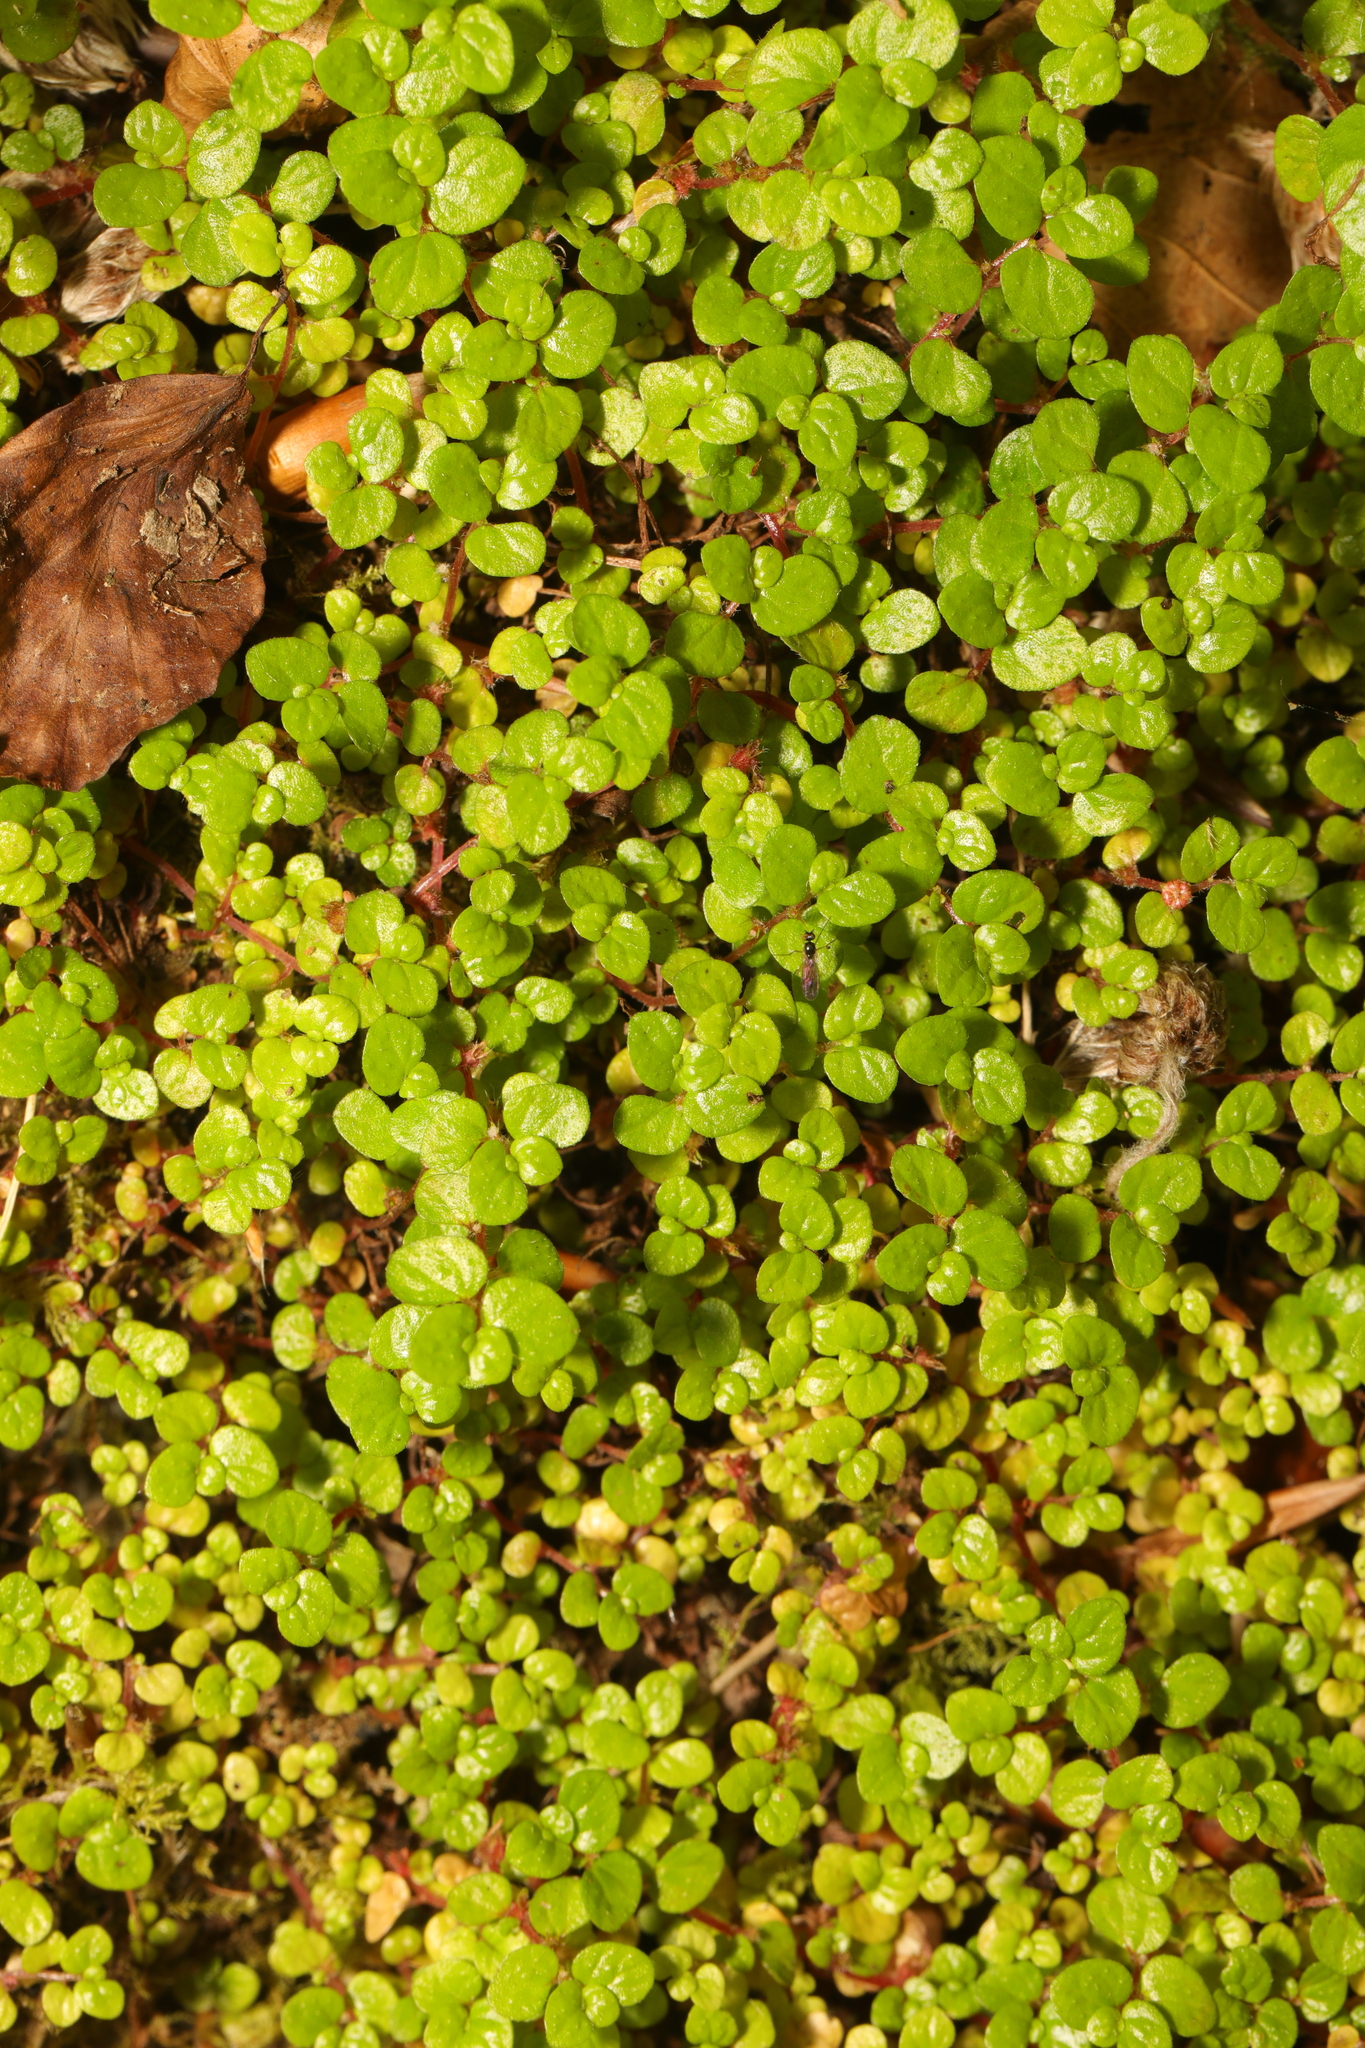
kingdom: Plantae
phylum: Tracheophyta
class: Magnoliopsida
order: Rosales
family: Urticaceae
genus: Soleirolia
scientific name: Soleirolia soleirolii
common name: Mind-your-own-business
